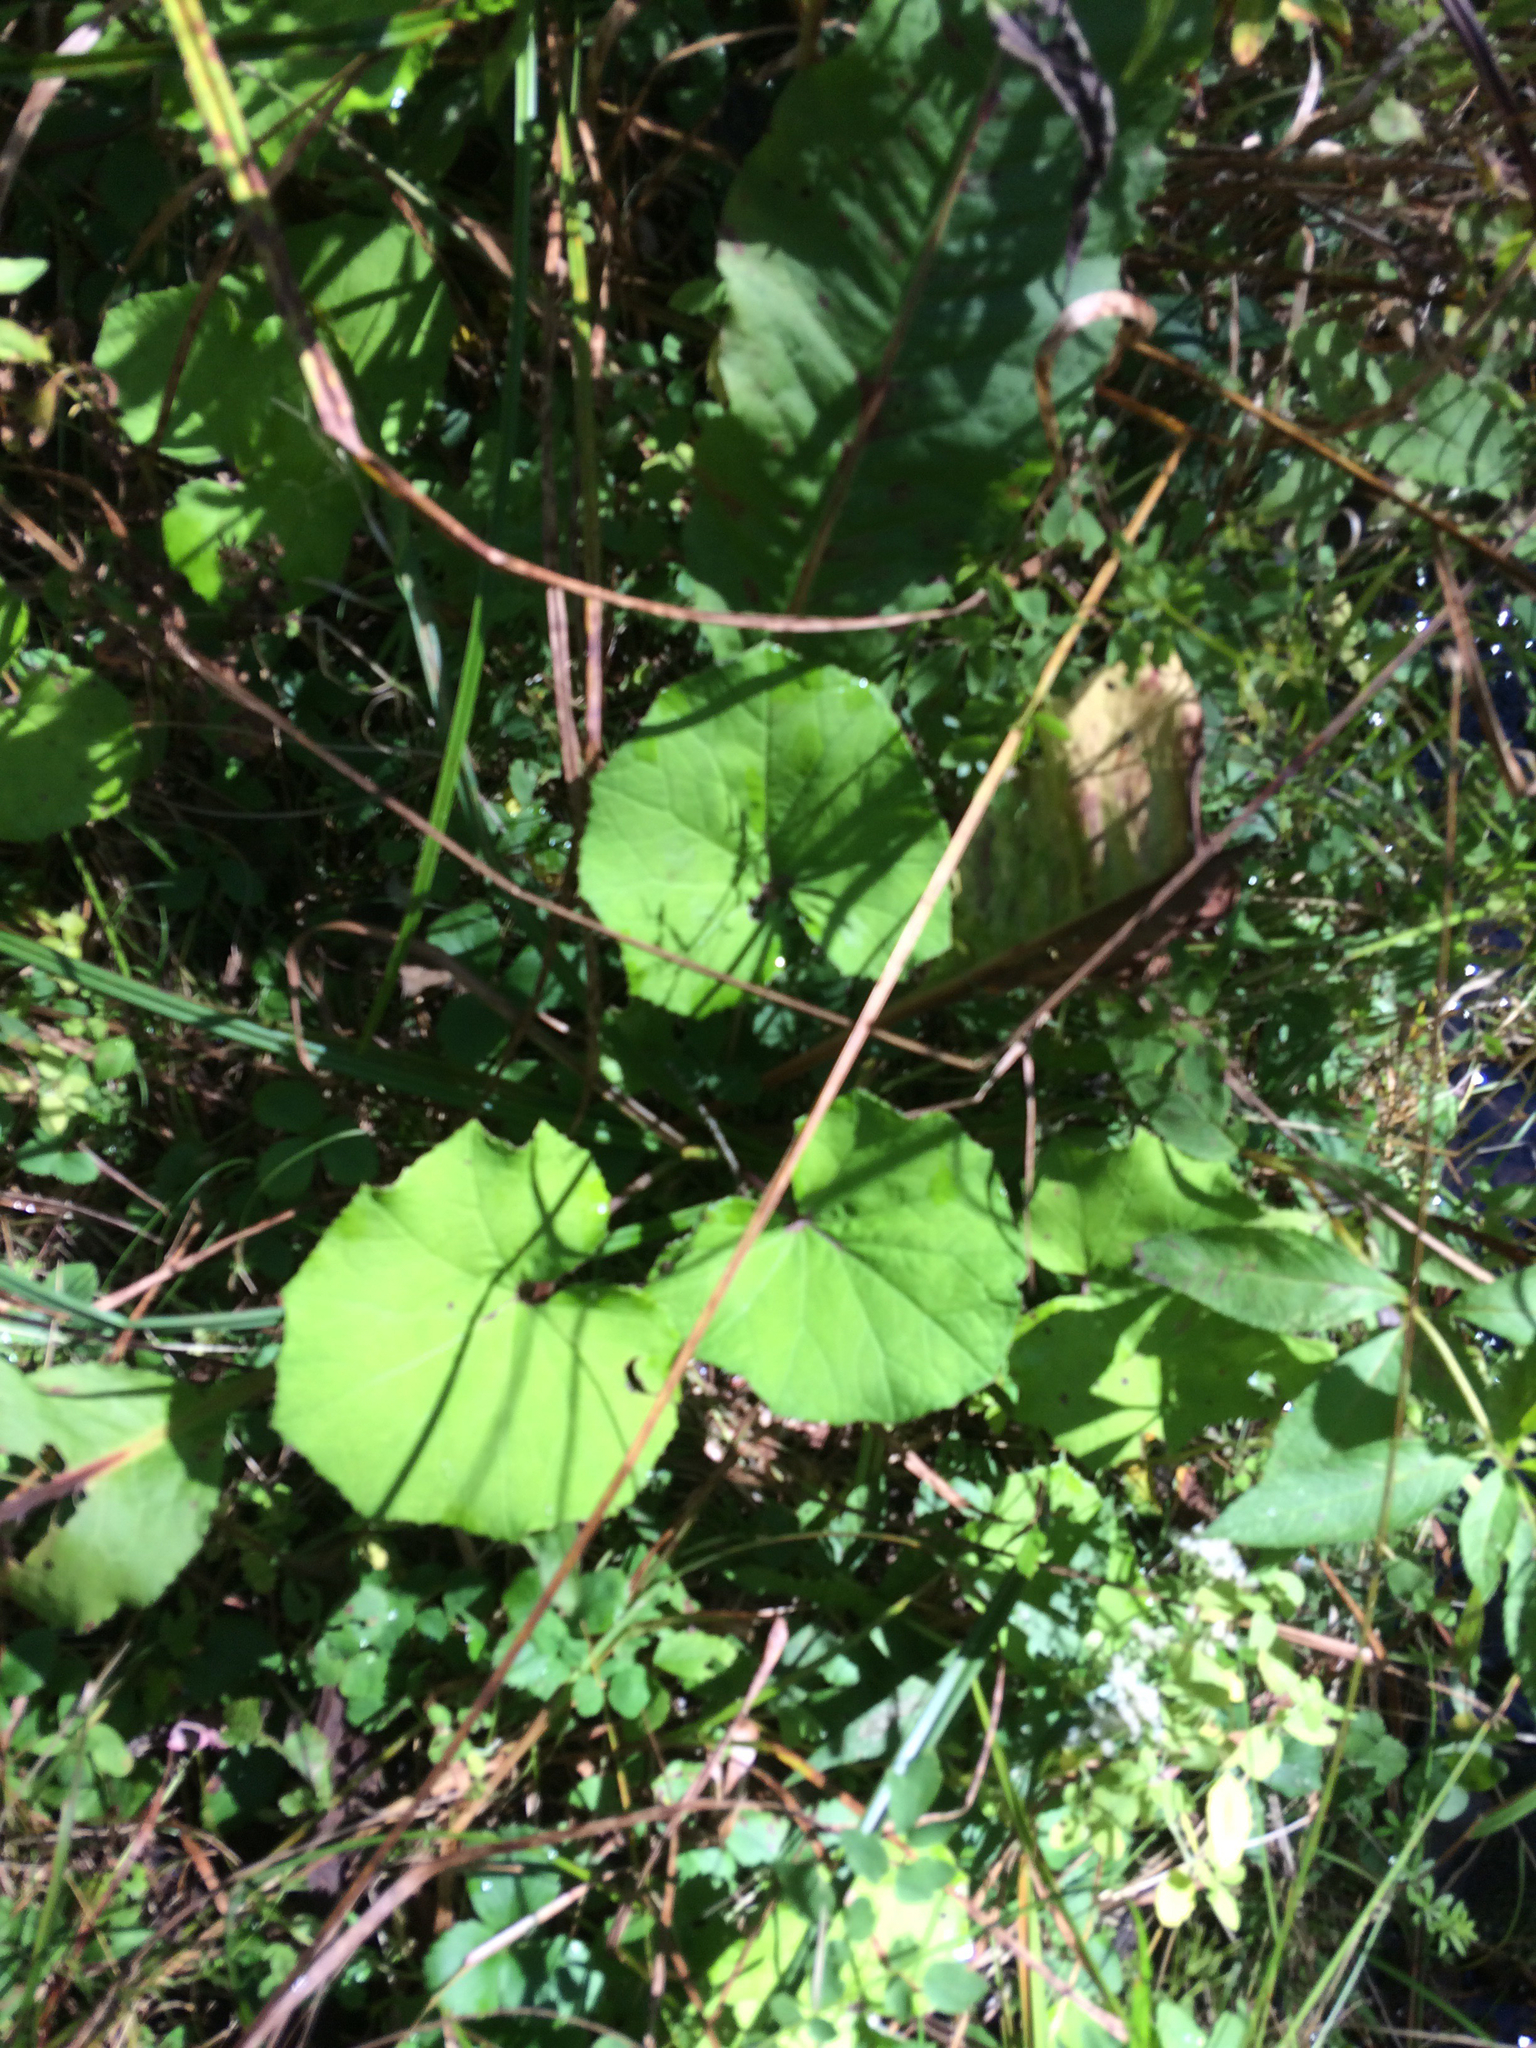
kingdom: Plantae
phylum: Tracheophyta
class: Magnoliopsida
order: Asterales
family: Asteraceae
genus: Tussilago
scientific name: Tussilago farfara
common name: Coltsfoot
